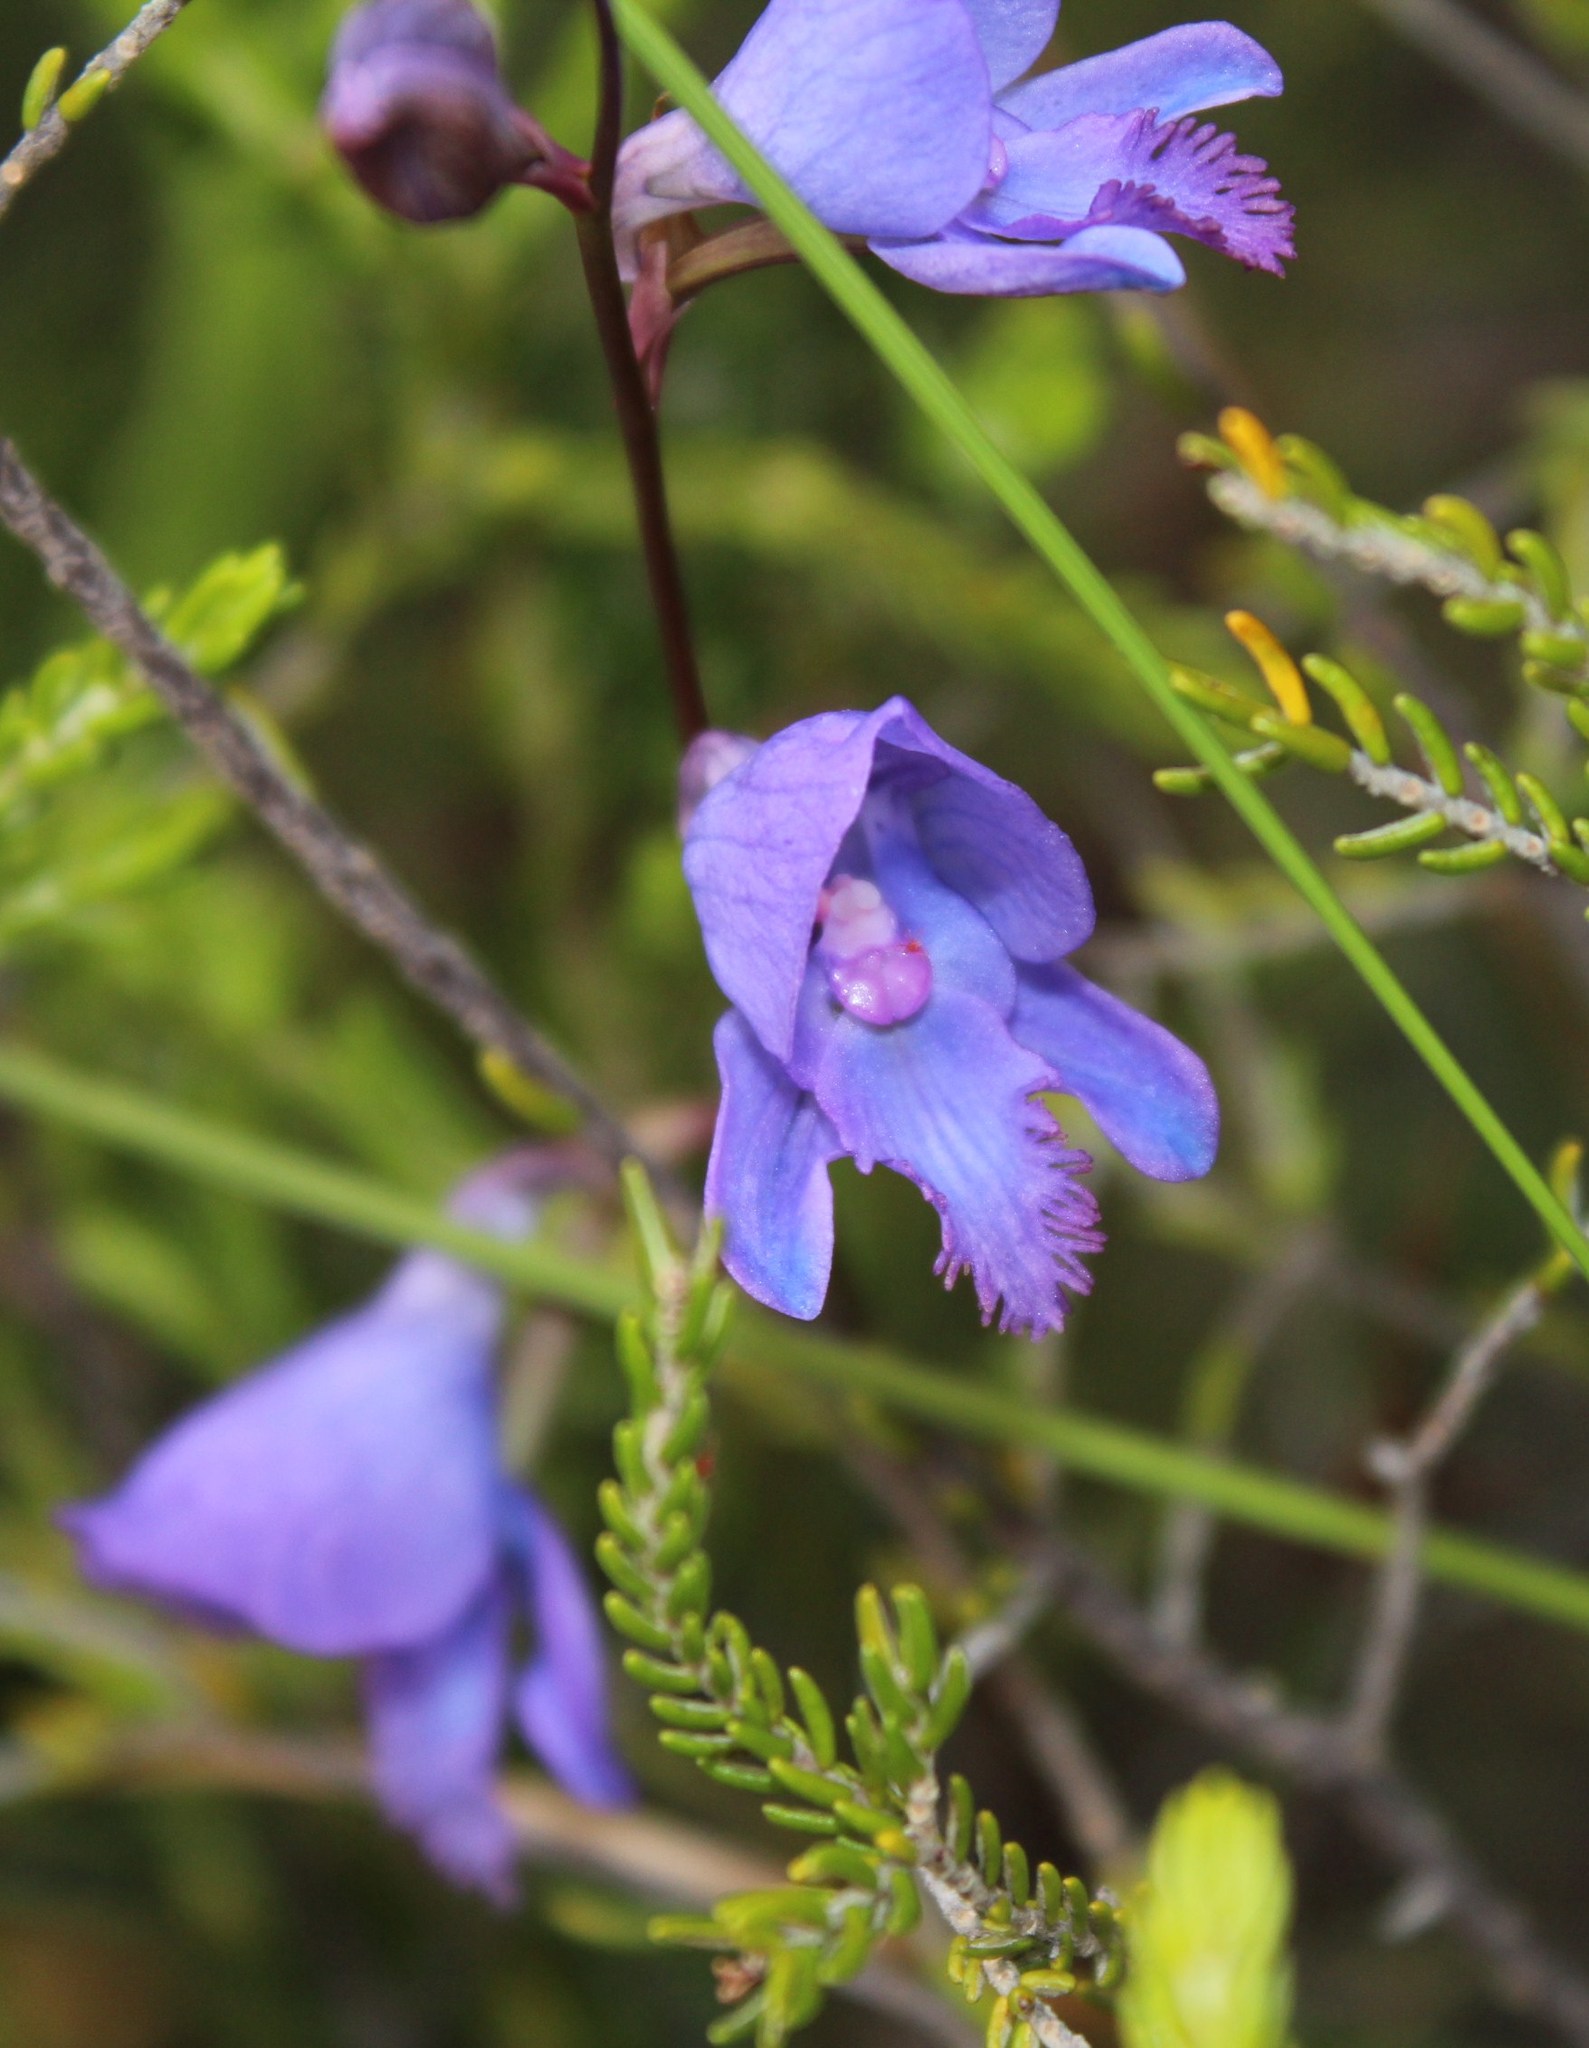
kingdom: Plantae
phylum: Tracheophyta
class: Liliopsida
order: Asparagales
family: Orchidaceae
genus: Disa
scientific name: Disa hians
